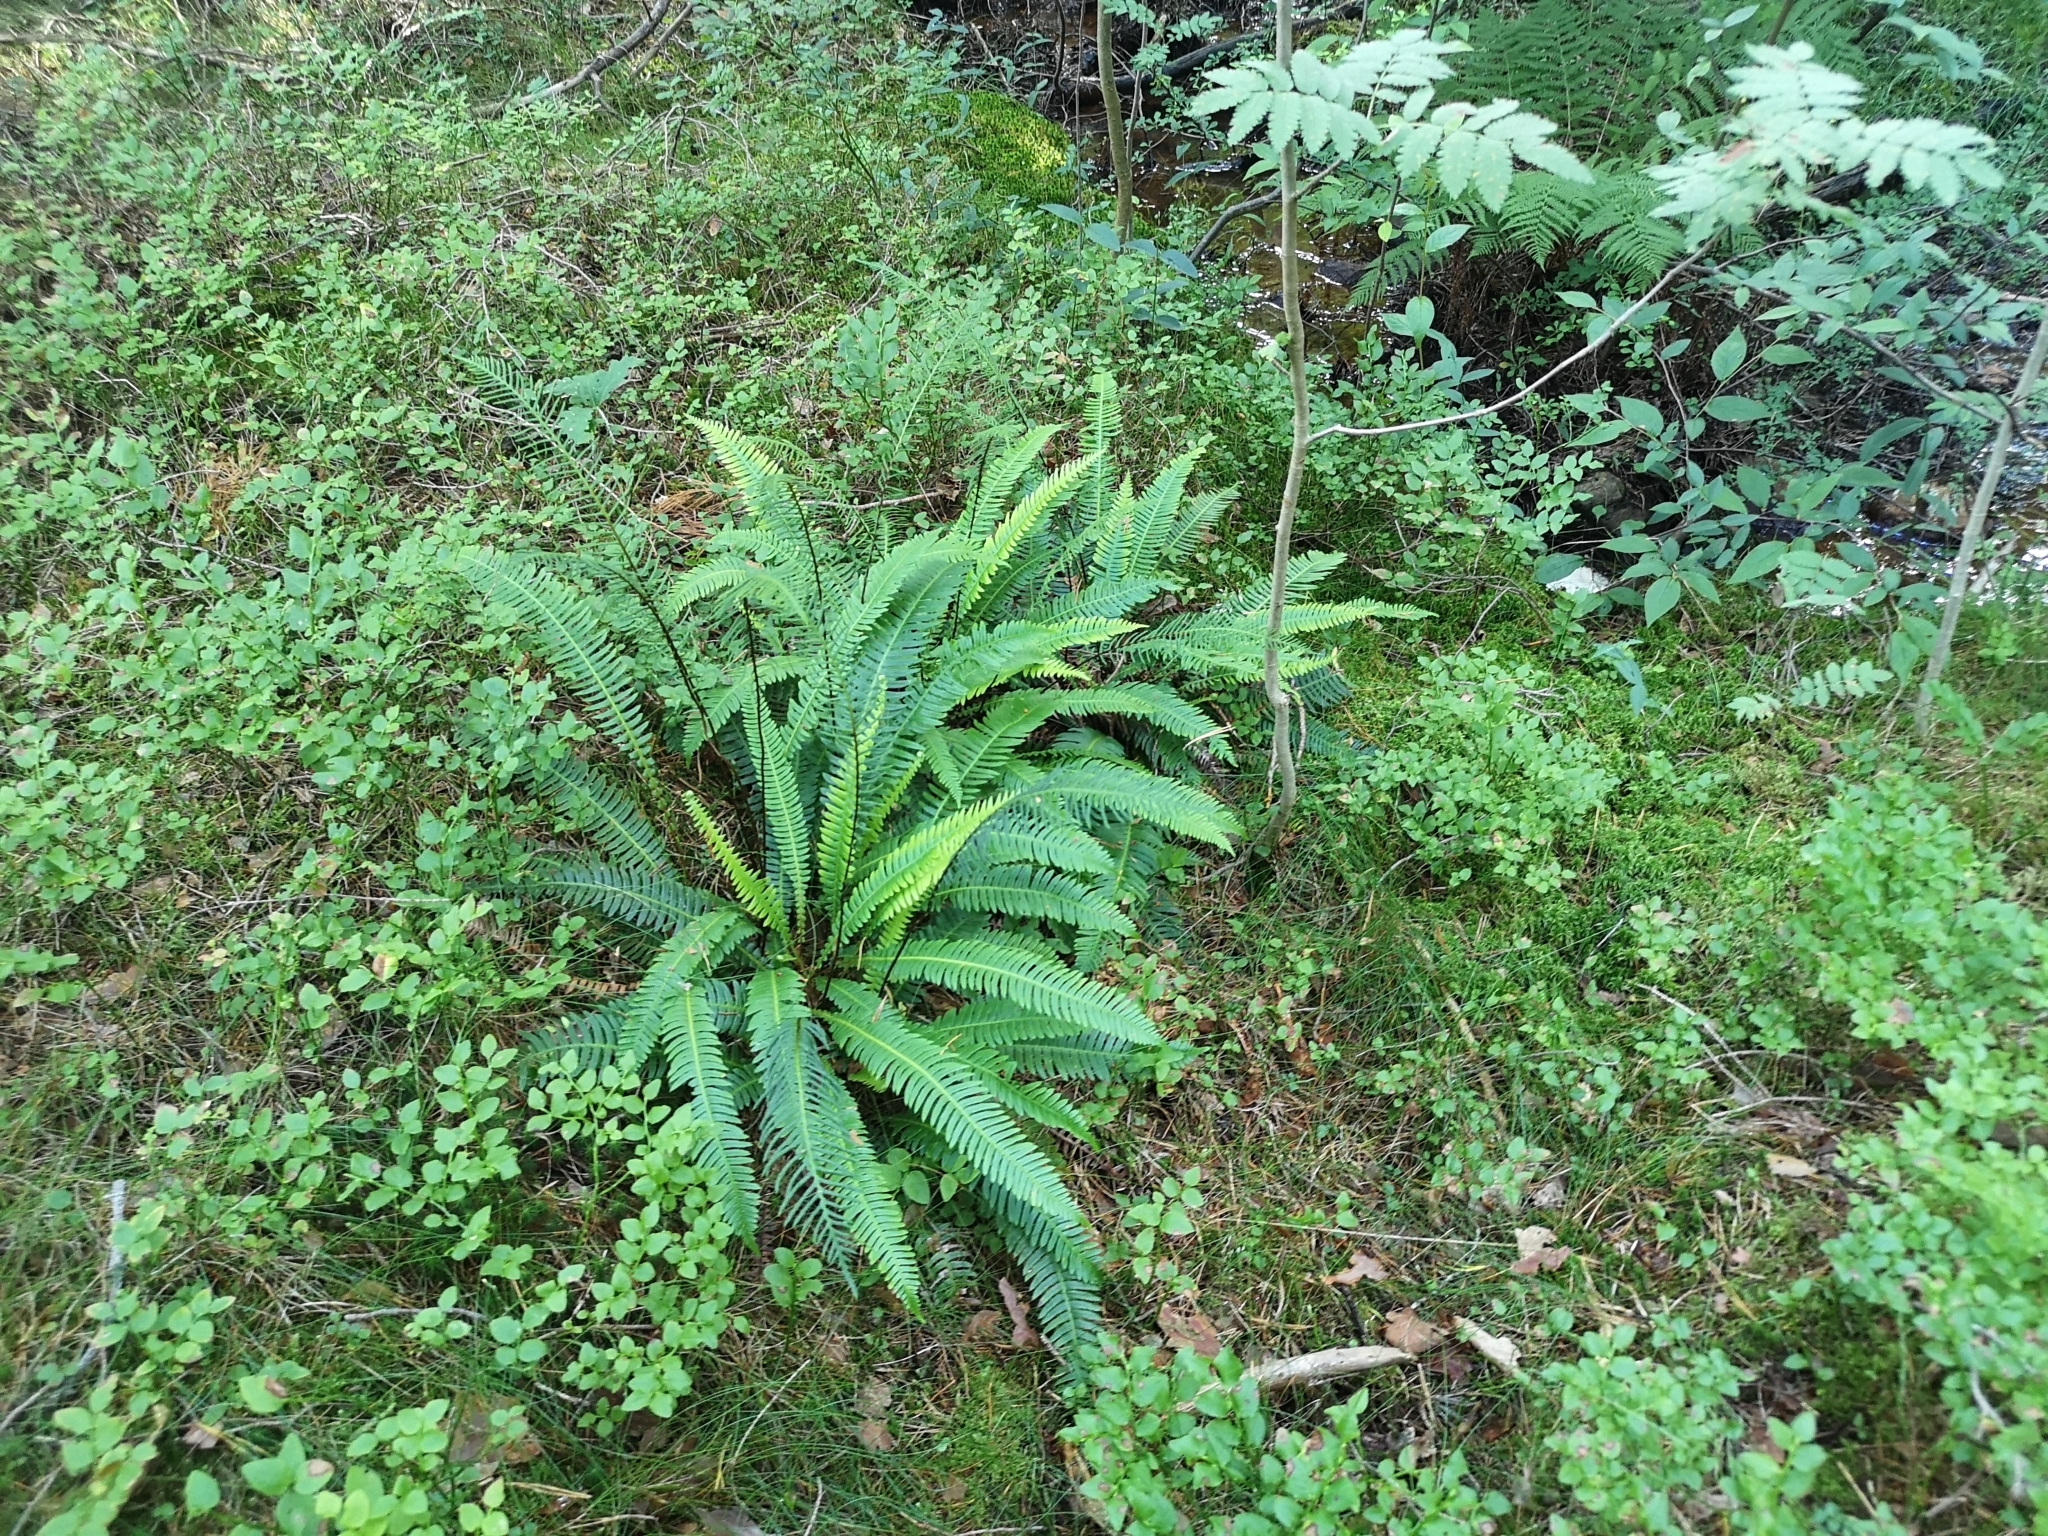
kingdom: Plantae
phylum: Tracheophyta
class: Polypodiopsida
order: Polypodiales
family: Blechnaceae
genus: Struthiopteris
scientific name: Struthiopteris spicant
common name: Deer fern
